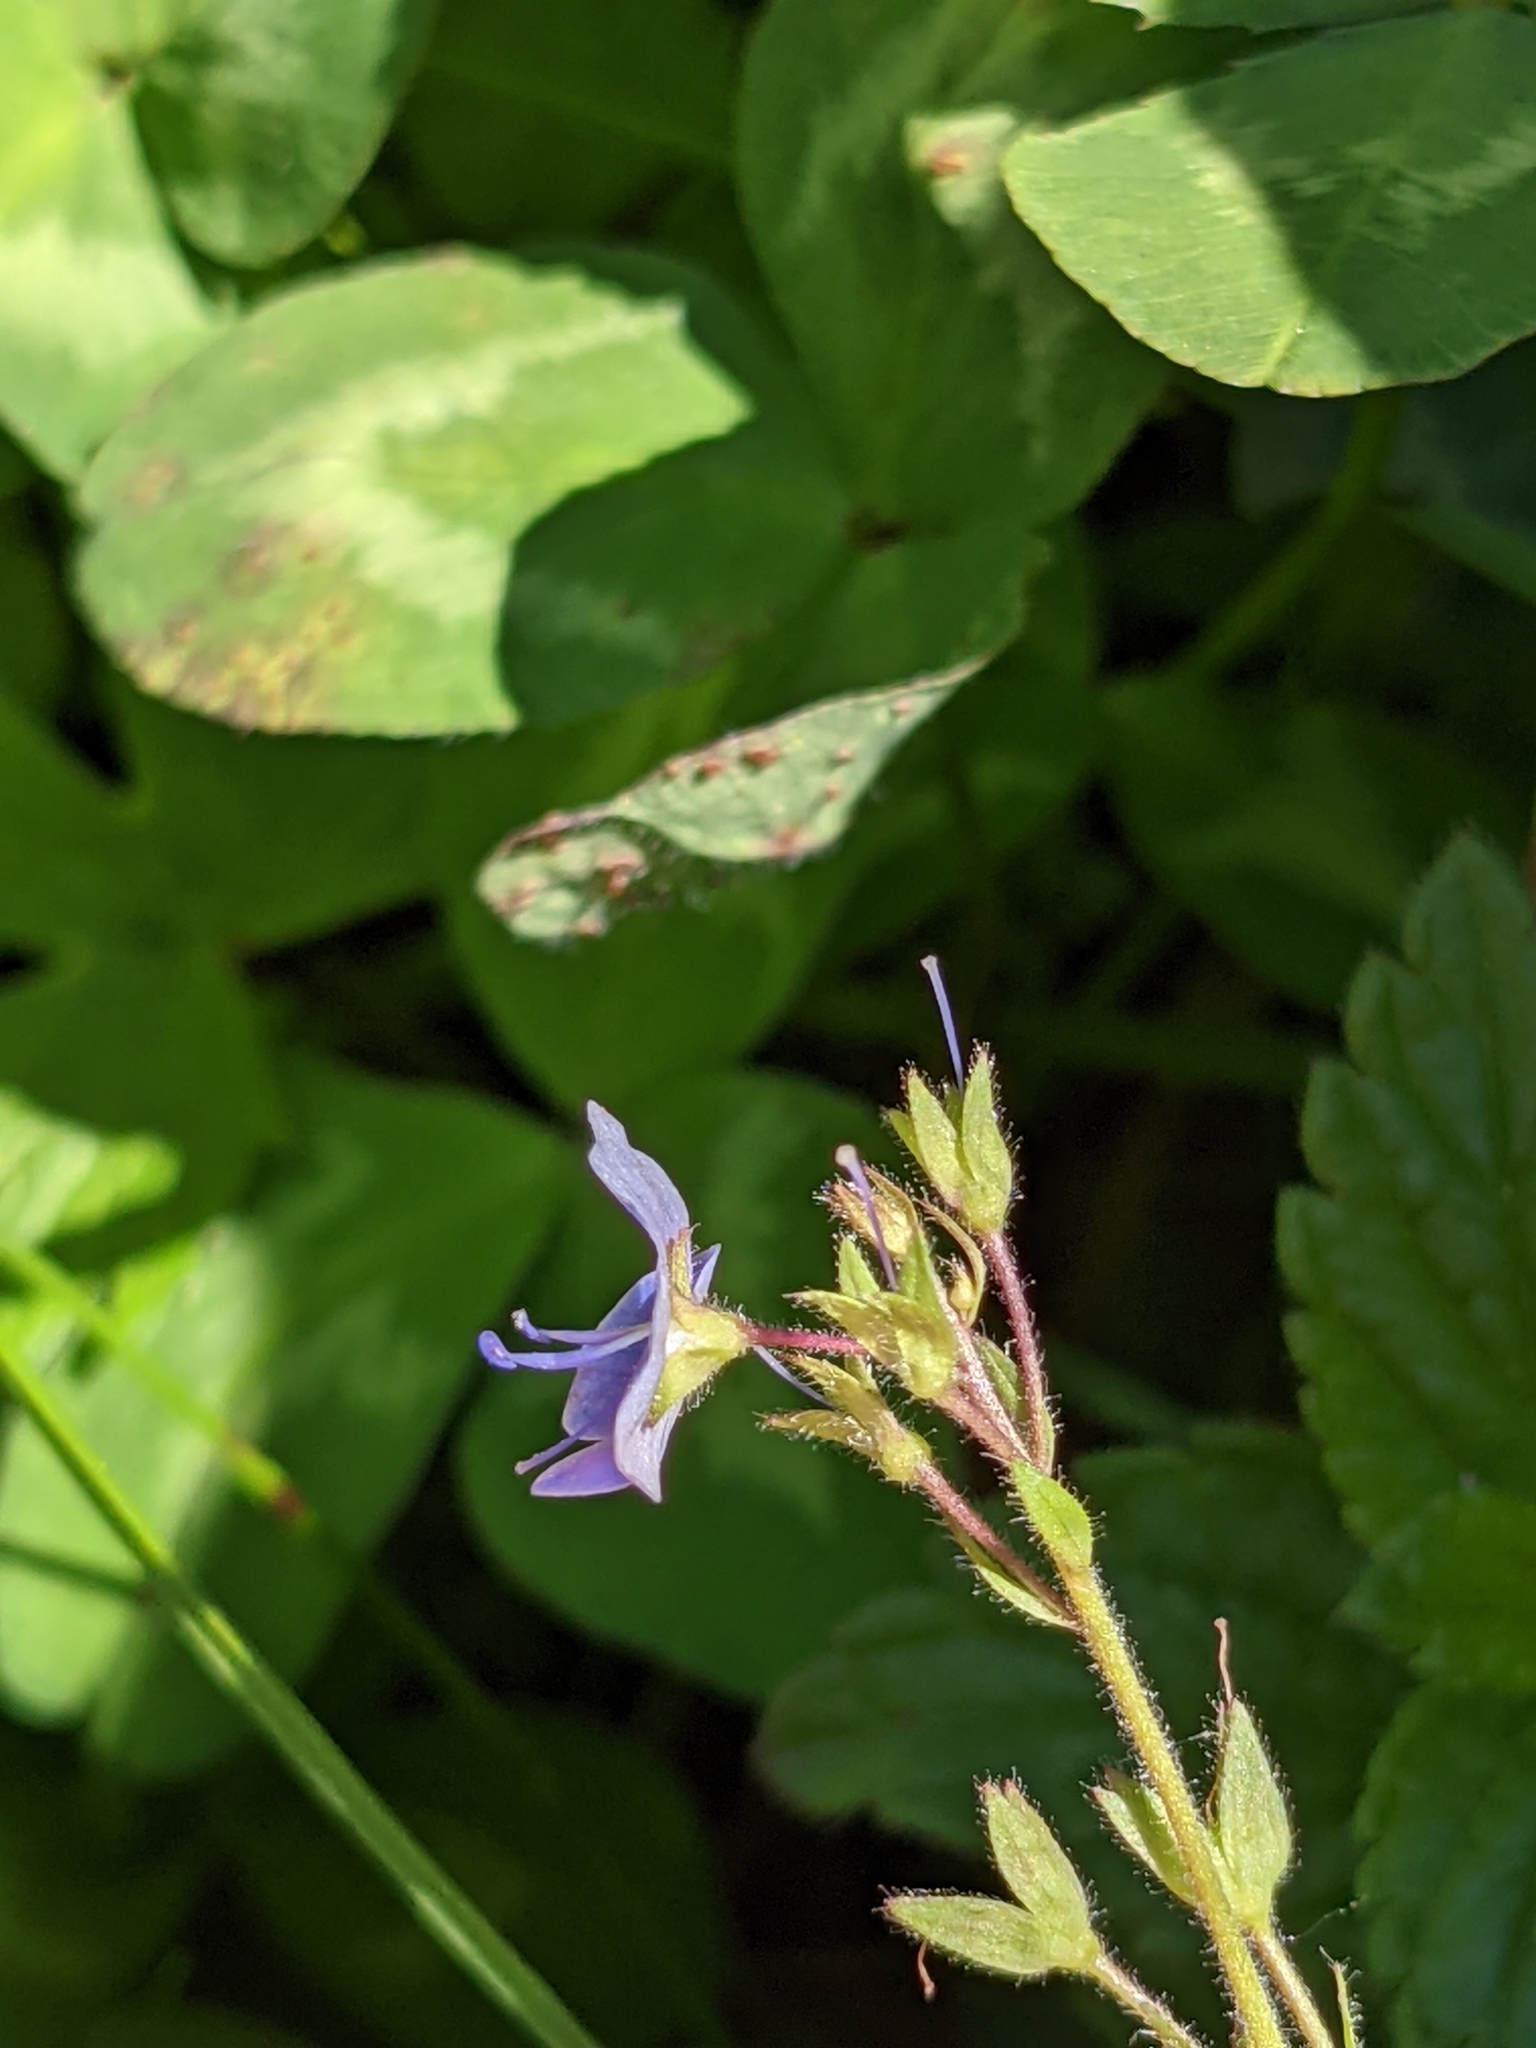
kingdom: Plantae
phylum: Tracheophyta
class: Magnoliopsida
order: Lamiales
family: Plantaginaceae
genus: Veronica
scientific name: Veronica chamaedrys
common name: Germander speedwell
